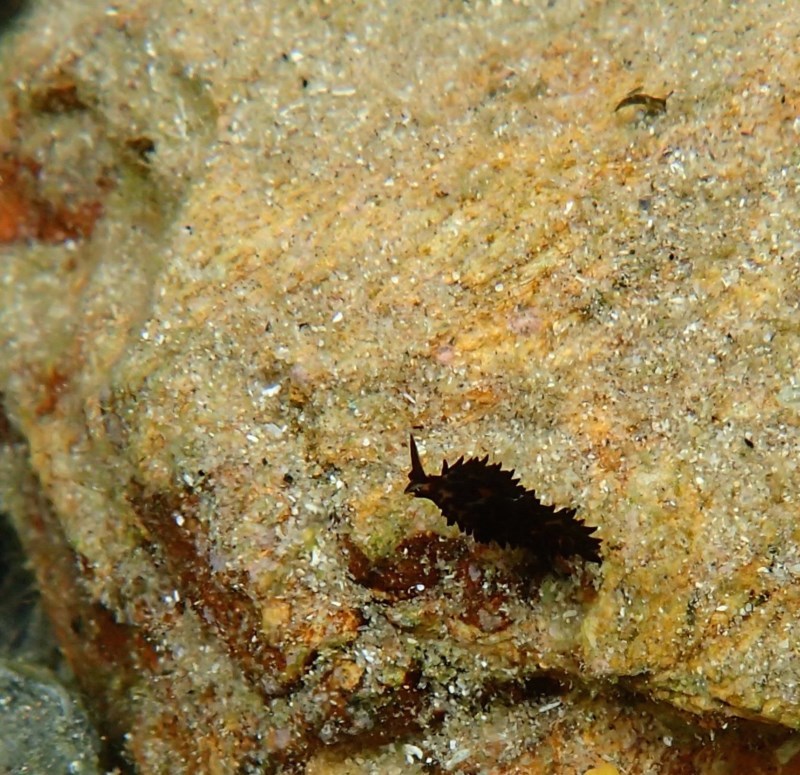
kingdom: Animalia
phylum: Mollusca
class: Gastropoda
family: Limapontiidae
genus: Placida
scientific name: Placida barackobamai
